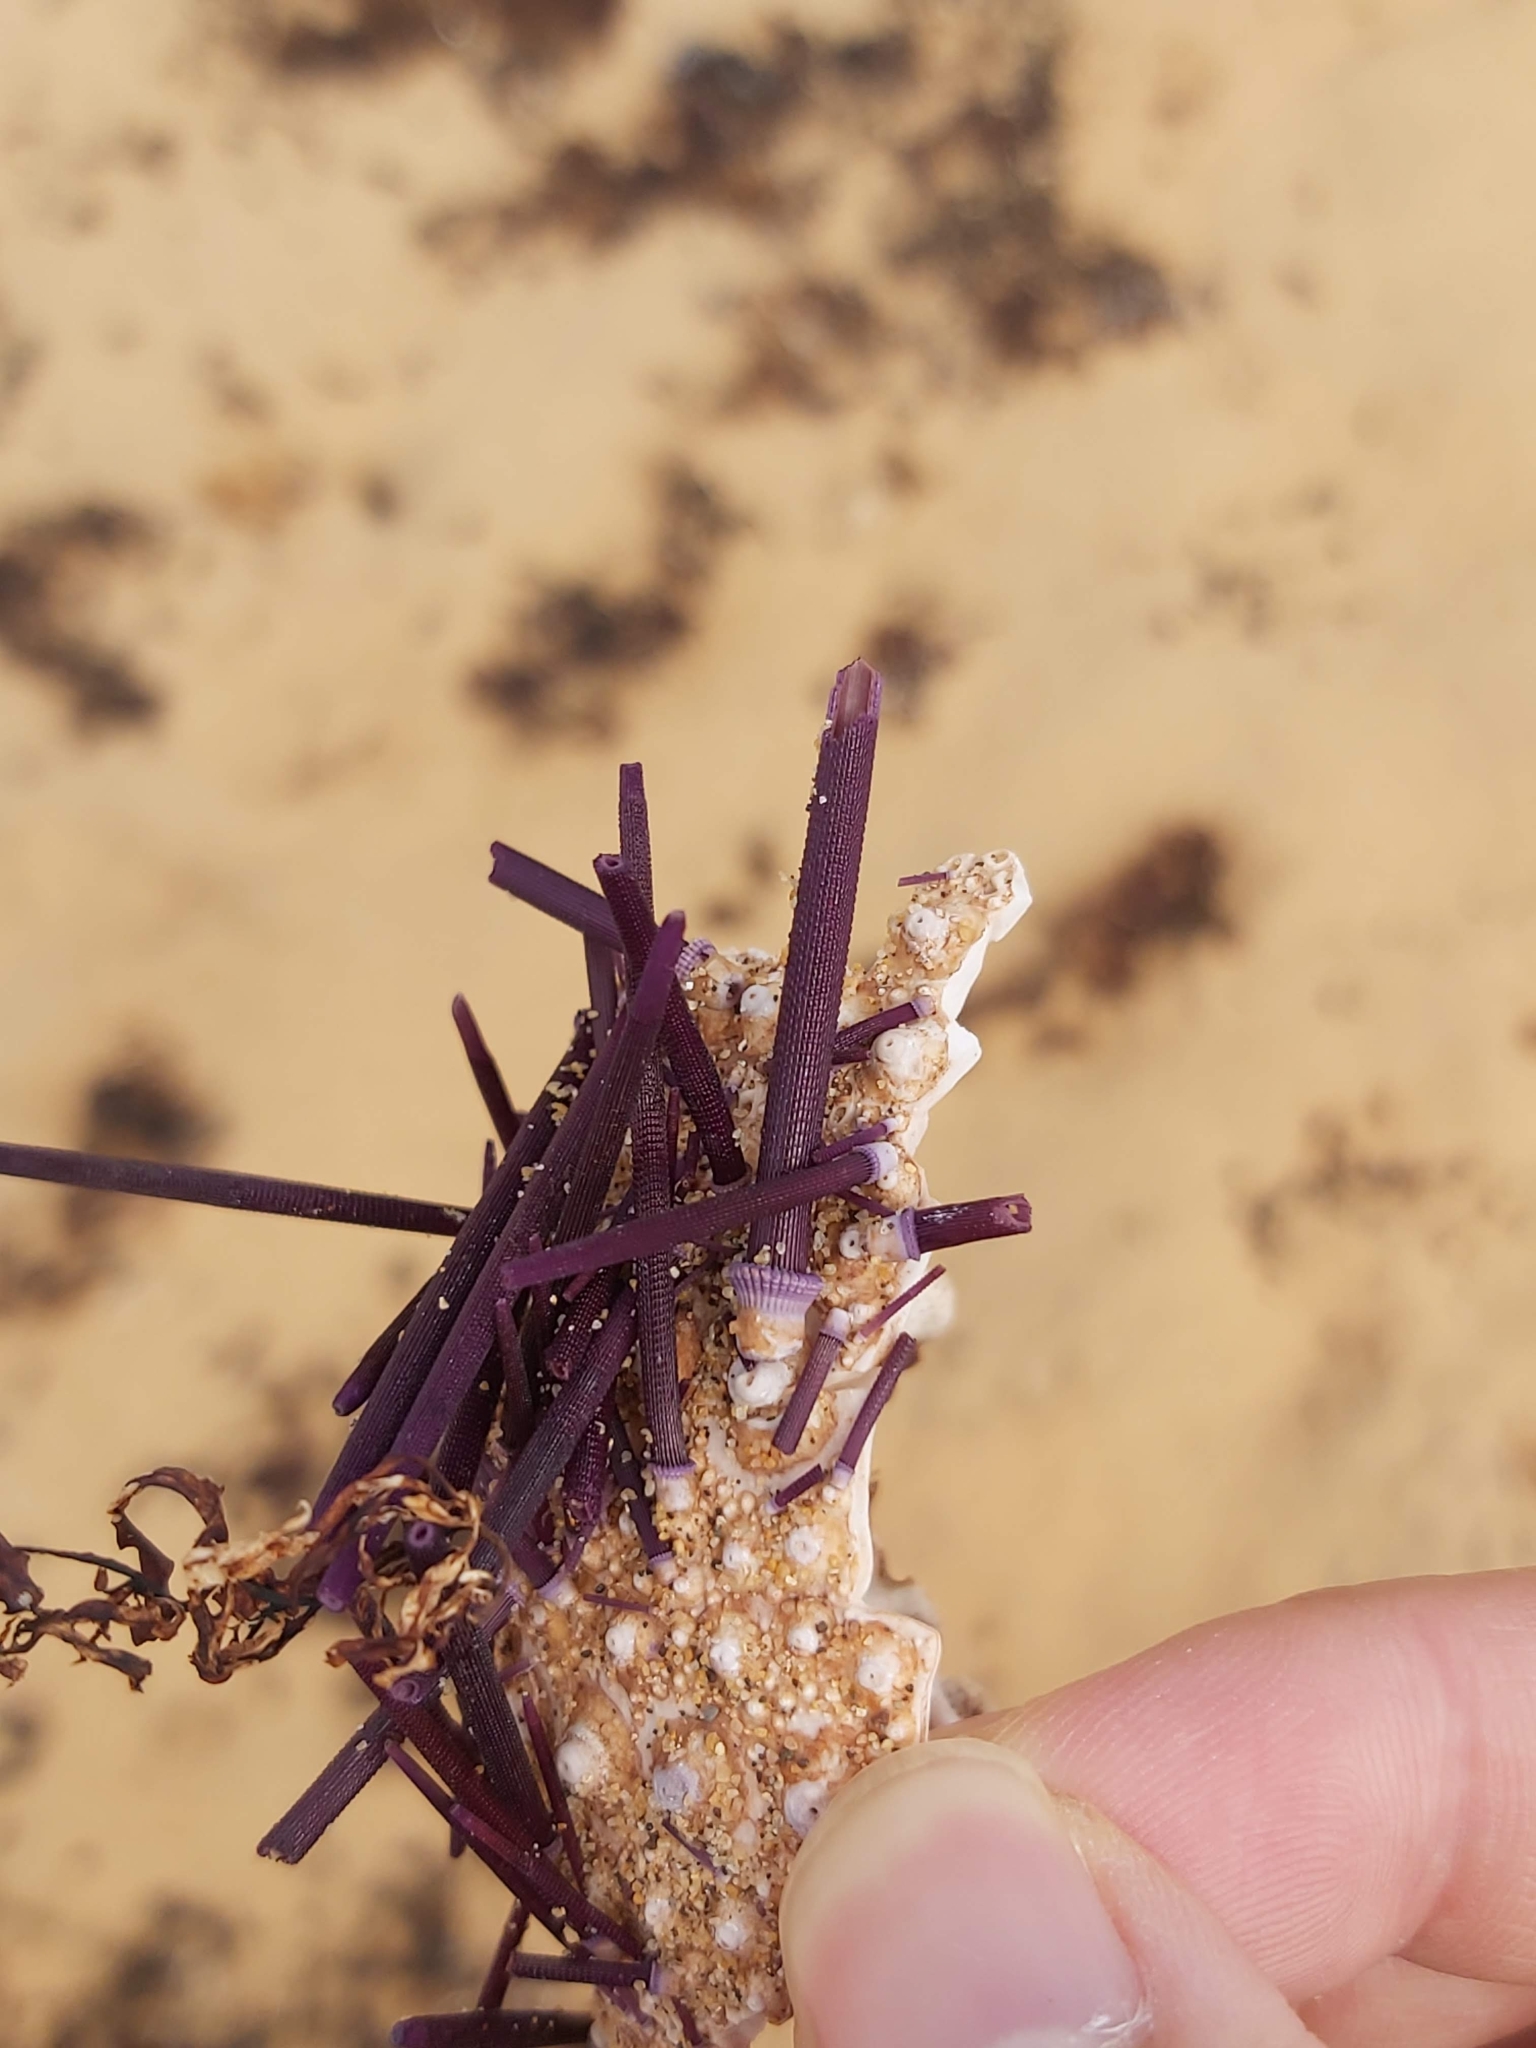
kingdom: Animalia
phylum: Echinodermata
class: Echinoidea
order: Diadematoida
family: Diadematidae
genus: Centrostephanus
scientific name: Centrostephanus rodgersii
